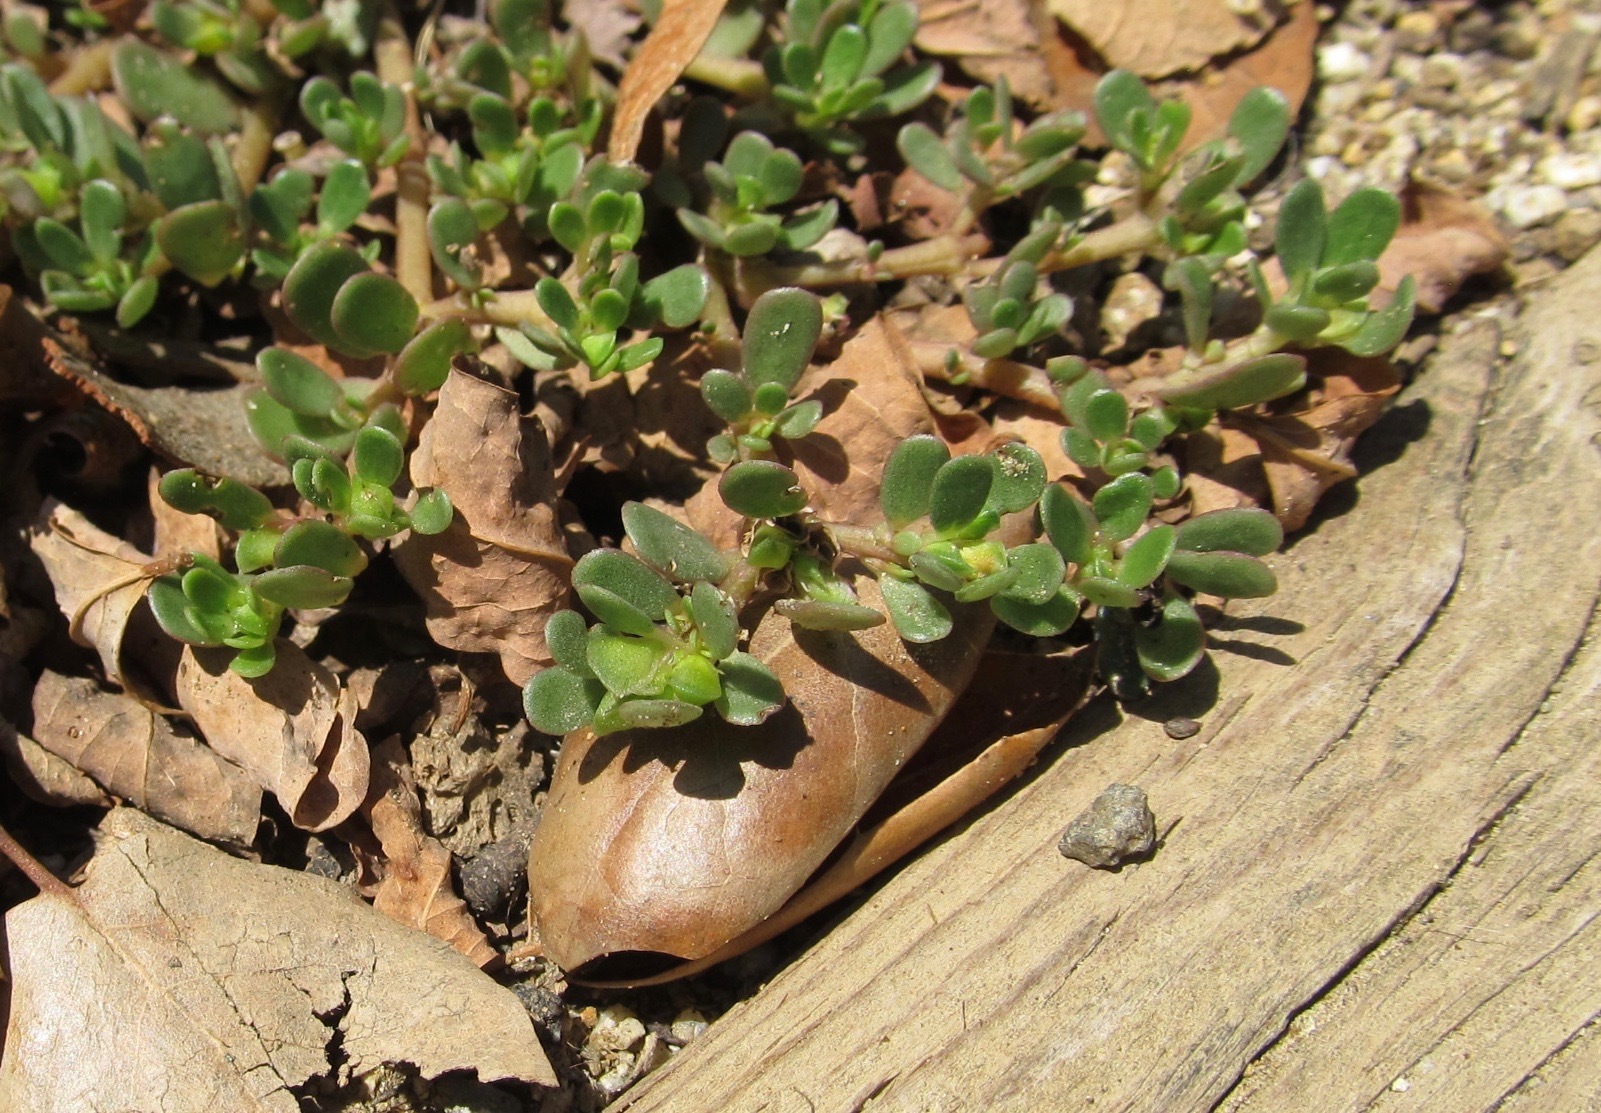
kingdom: Plantae
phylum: Tracheophyta
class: Magnoliopsida
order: Caryophyllales
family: Portulacaceae
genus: Portulaca
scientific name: Portulaca oleracea
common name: Common purslane
